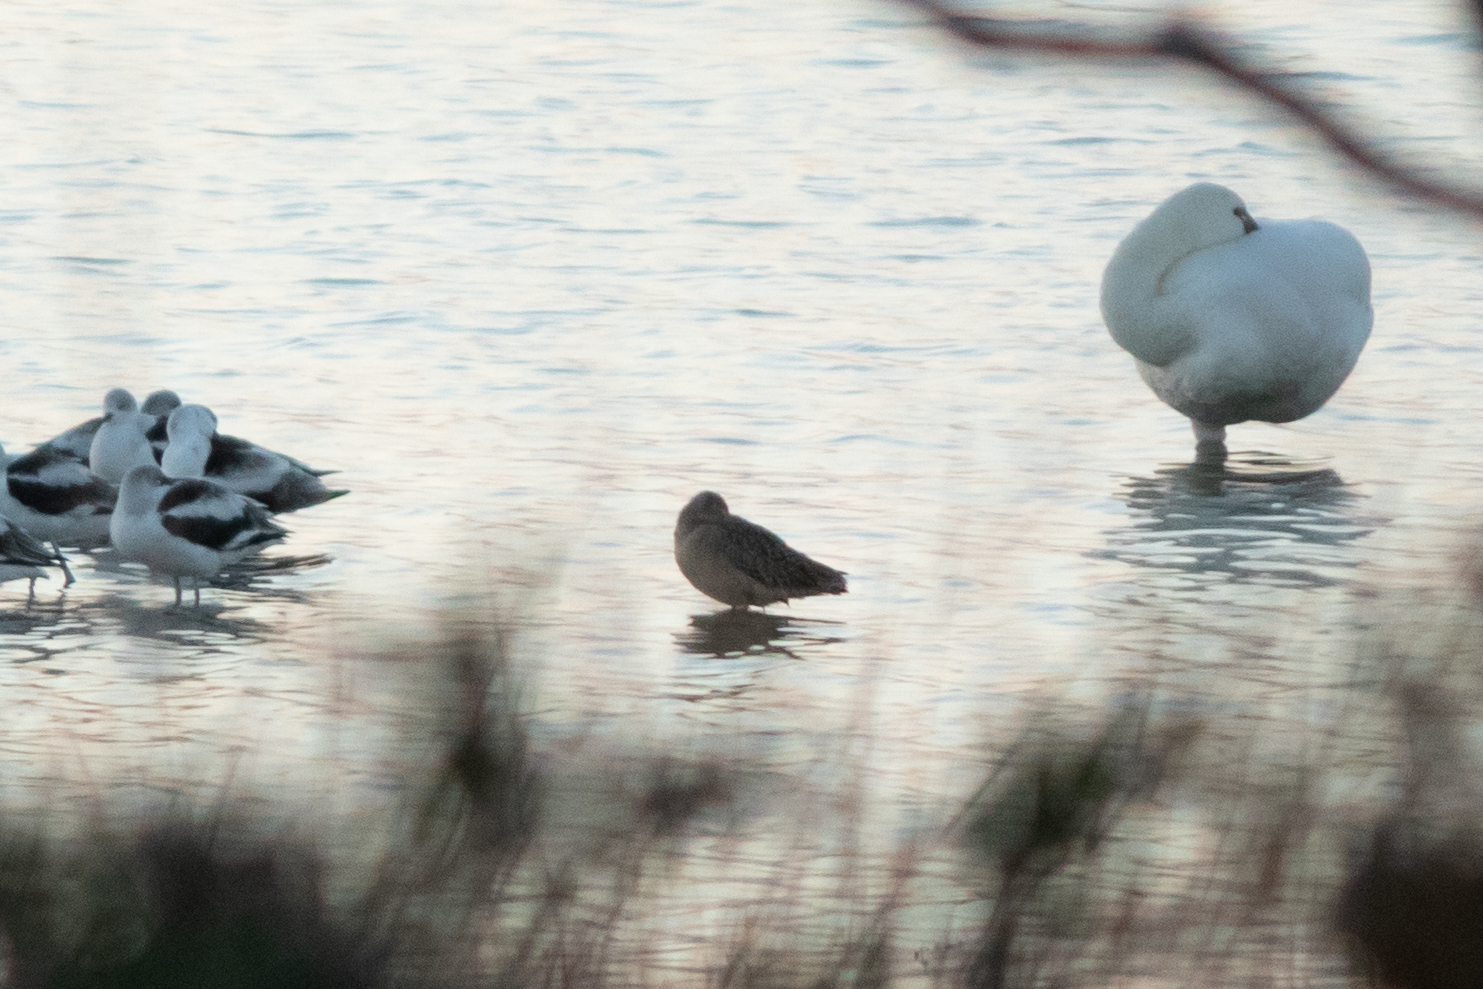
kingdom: Animalia
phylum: Chordata
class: Aves
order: Charadriiformes
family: Scolopacidae
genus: Limosa
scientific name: Limosa fedoa
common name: Marbled godwit
